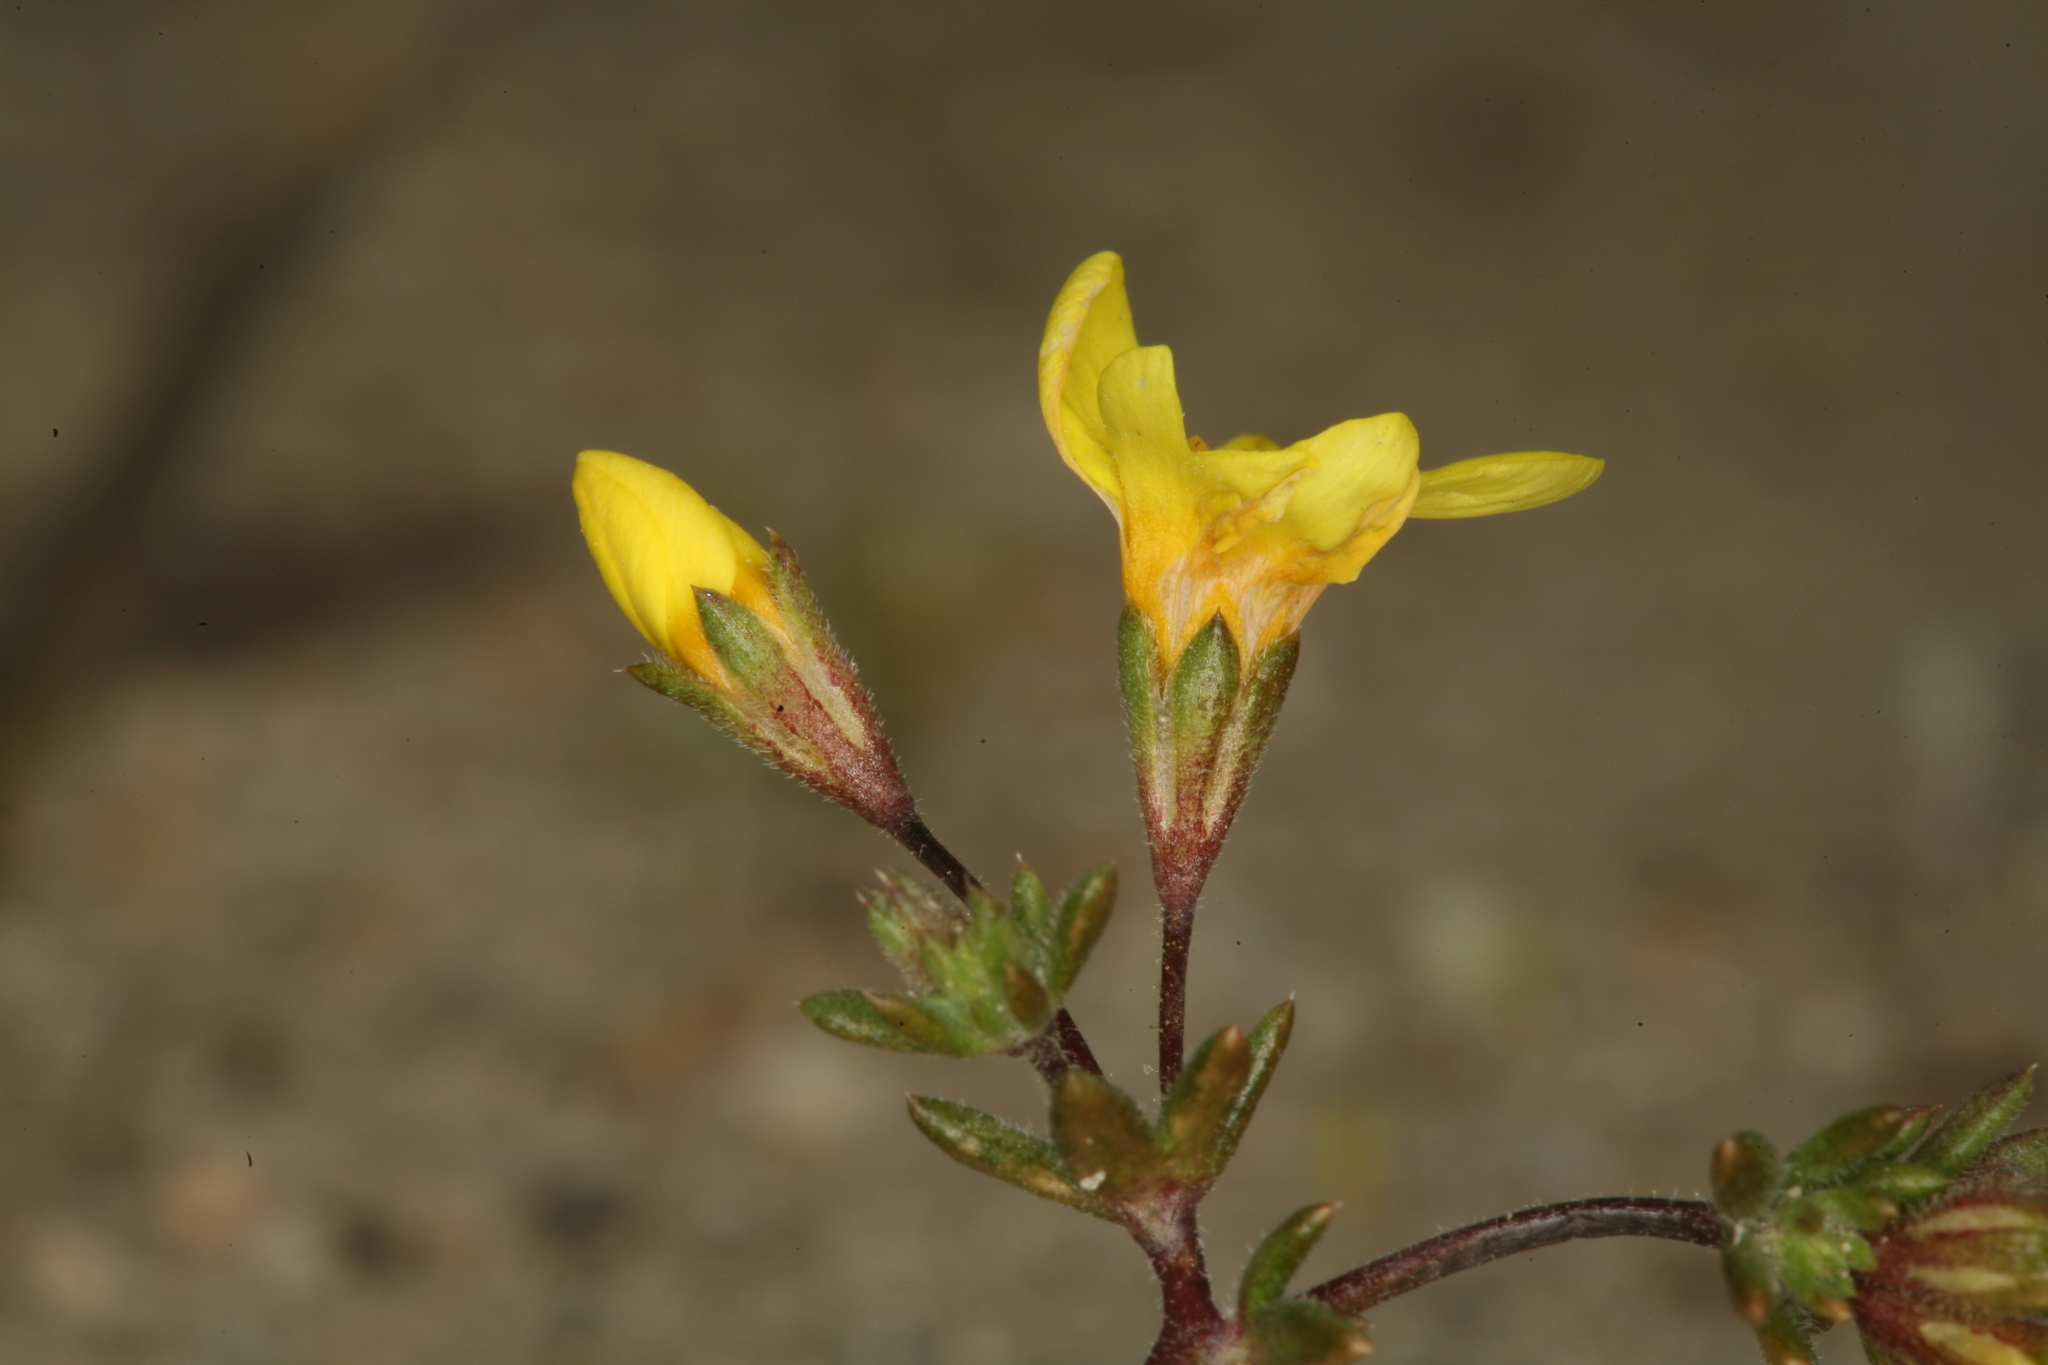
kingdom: Plantae
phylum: Tracheophyta
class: Magnoliopsida
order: Ericales
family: Polemoniaceae
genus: Leptosiphon
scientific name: Leptosiphon chrysanthus
